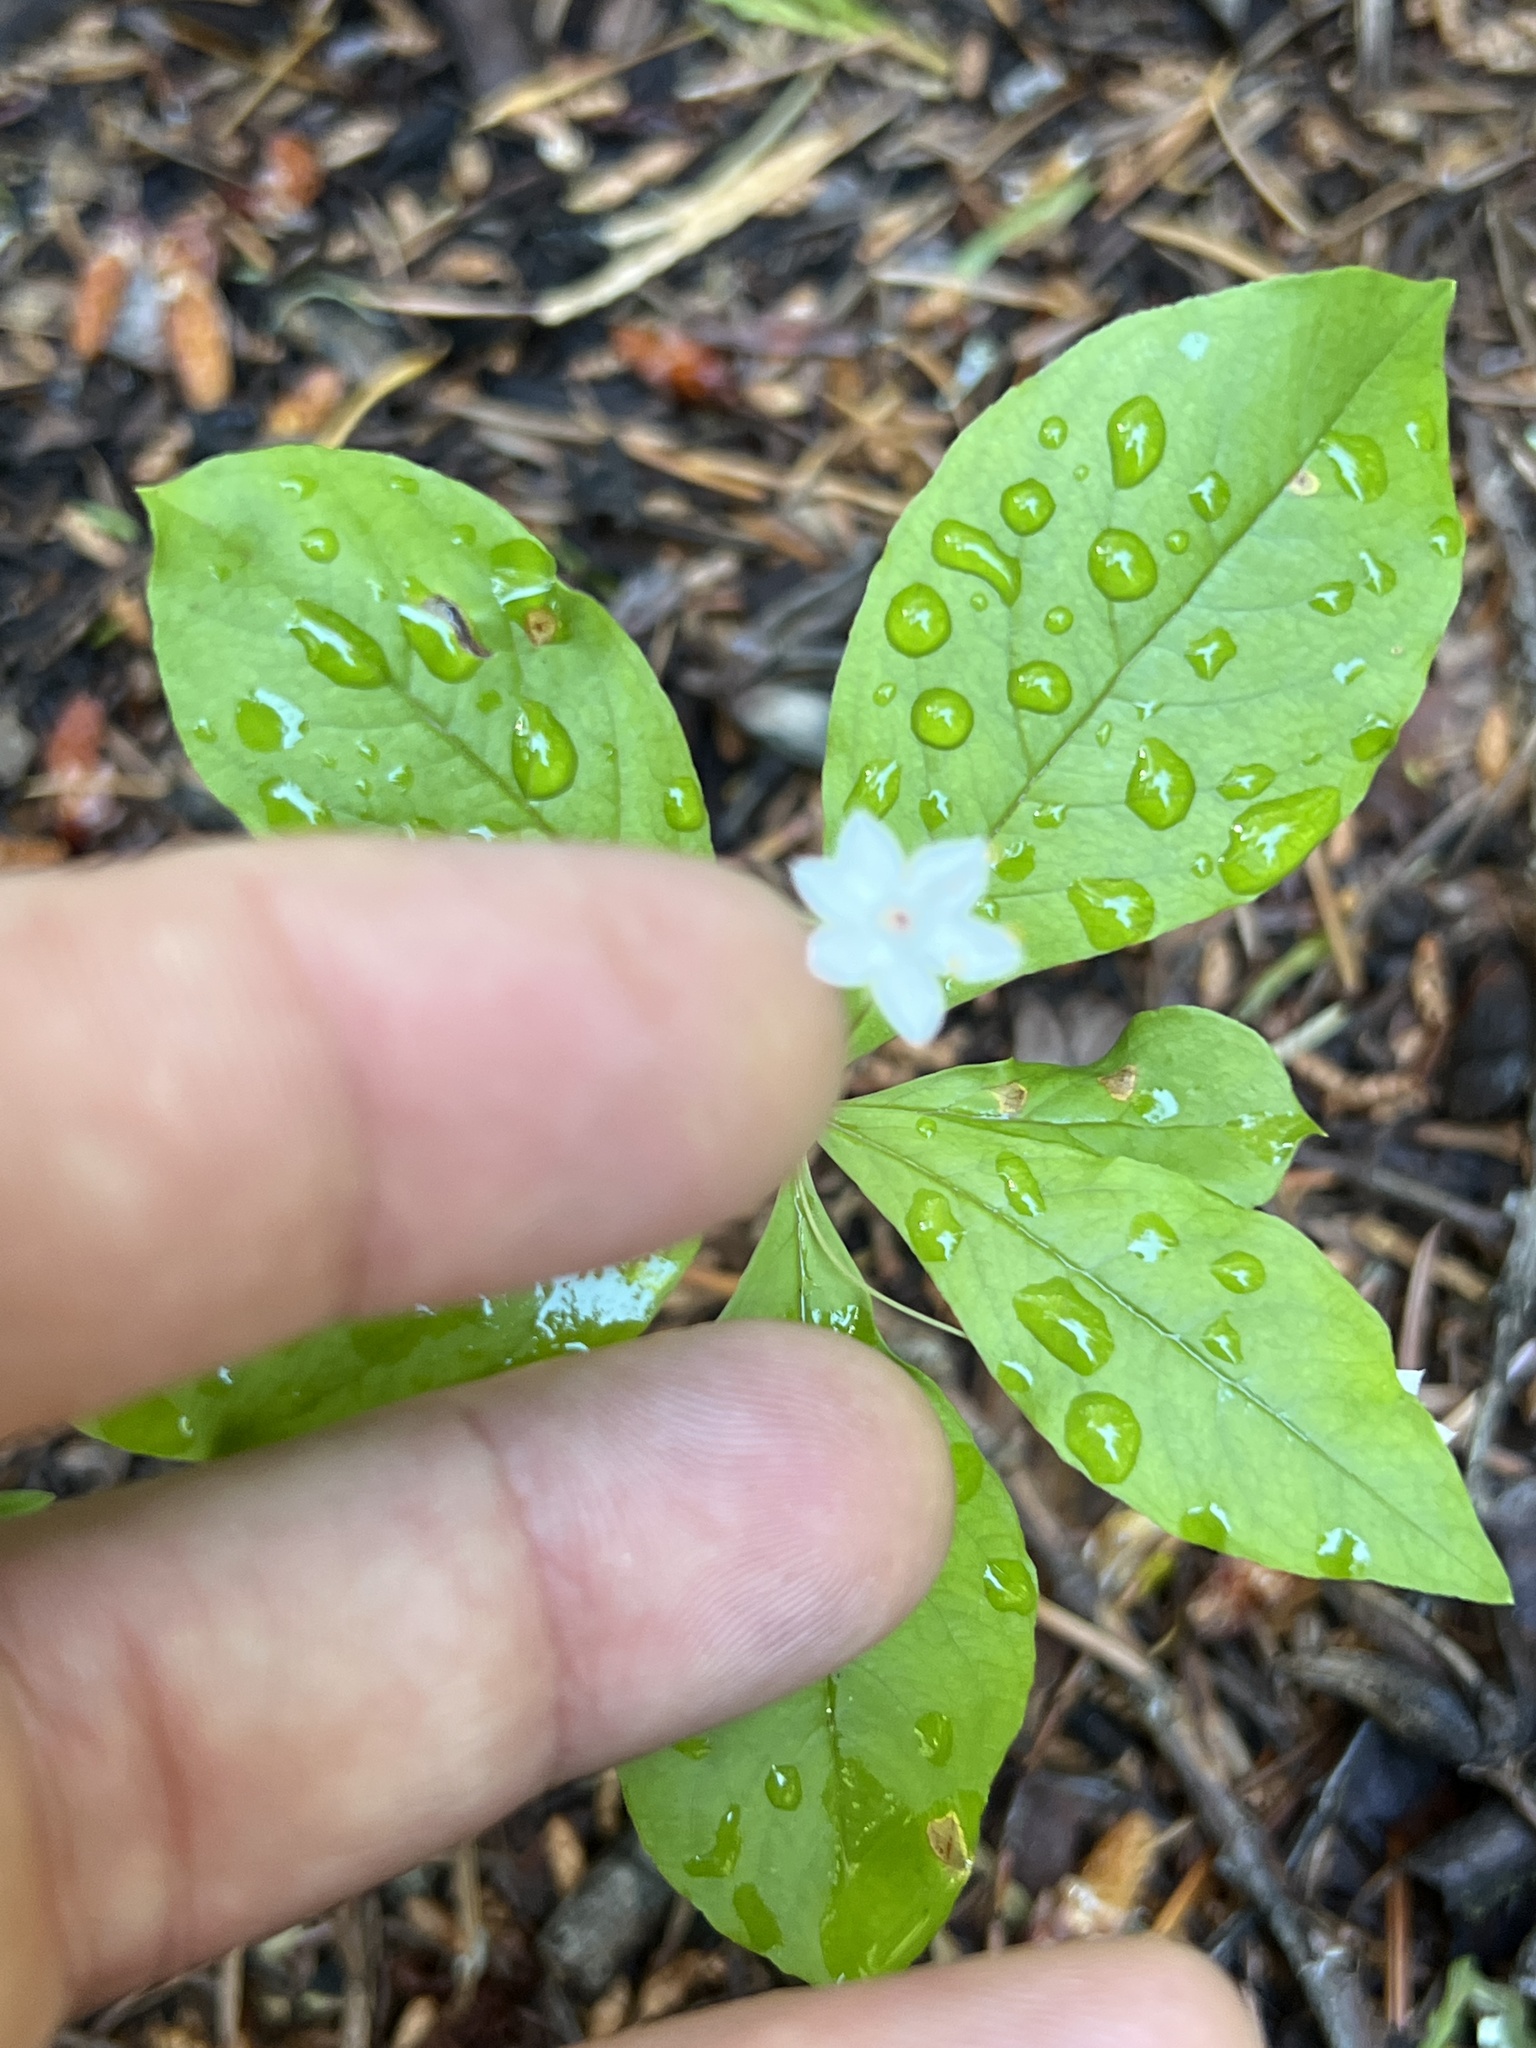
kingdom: Plantae
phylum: Tracheophyta
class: Magnoliopsida
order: Ericales
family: Primulaceae
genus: Lysimachia
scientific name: Lysimachia latifolia
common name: Pacific starflower
